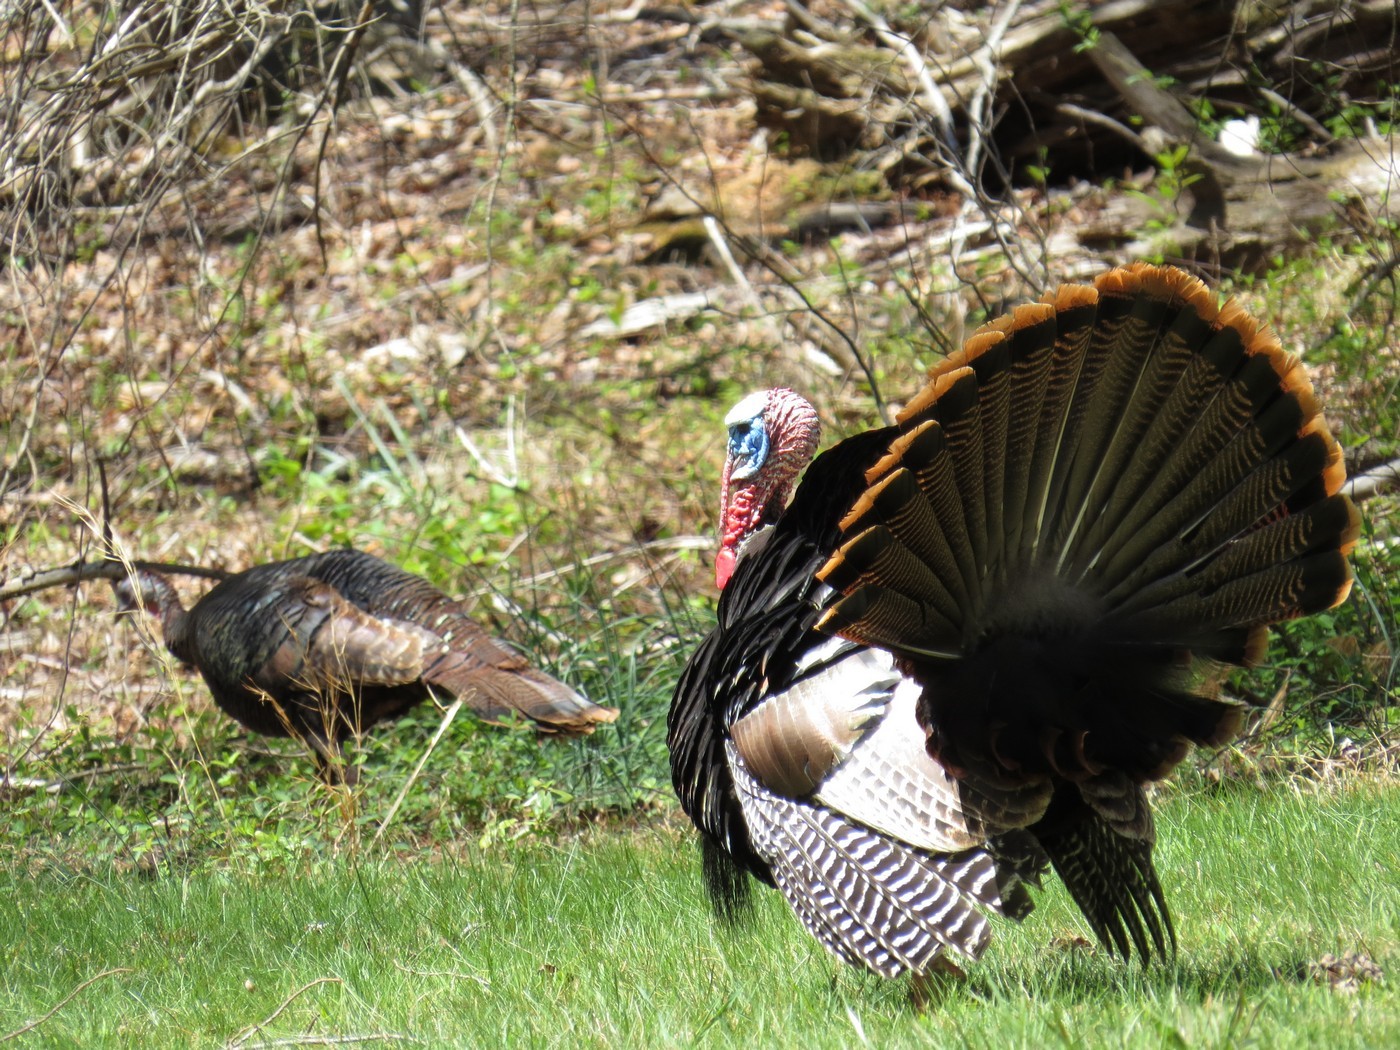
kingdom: Animalia
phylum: Chordata
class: Aves
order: Galliformes
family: Phasianidae
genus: Meleagris
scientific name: Meleagris gallopavo
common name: Wild turkey
